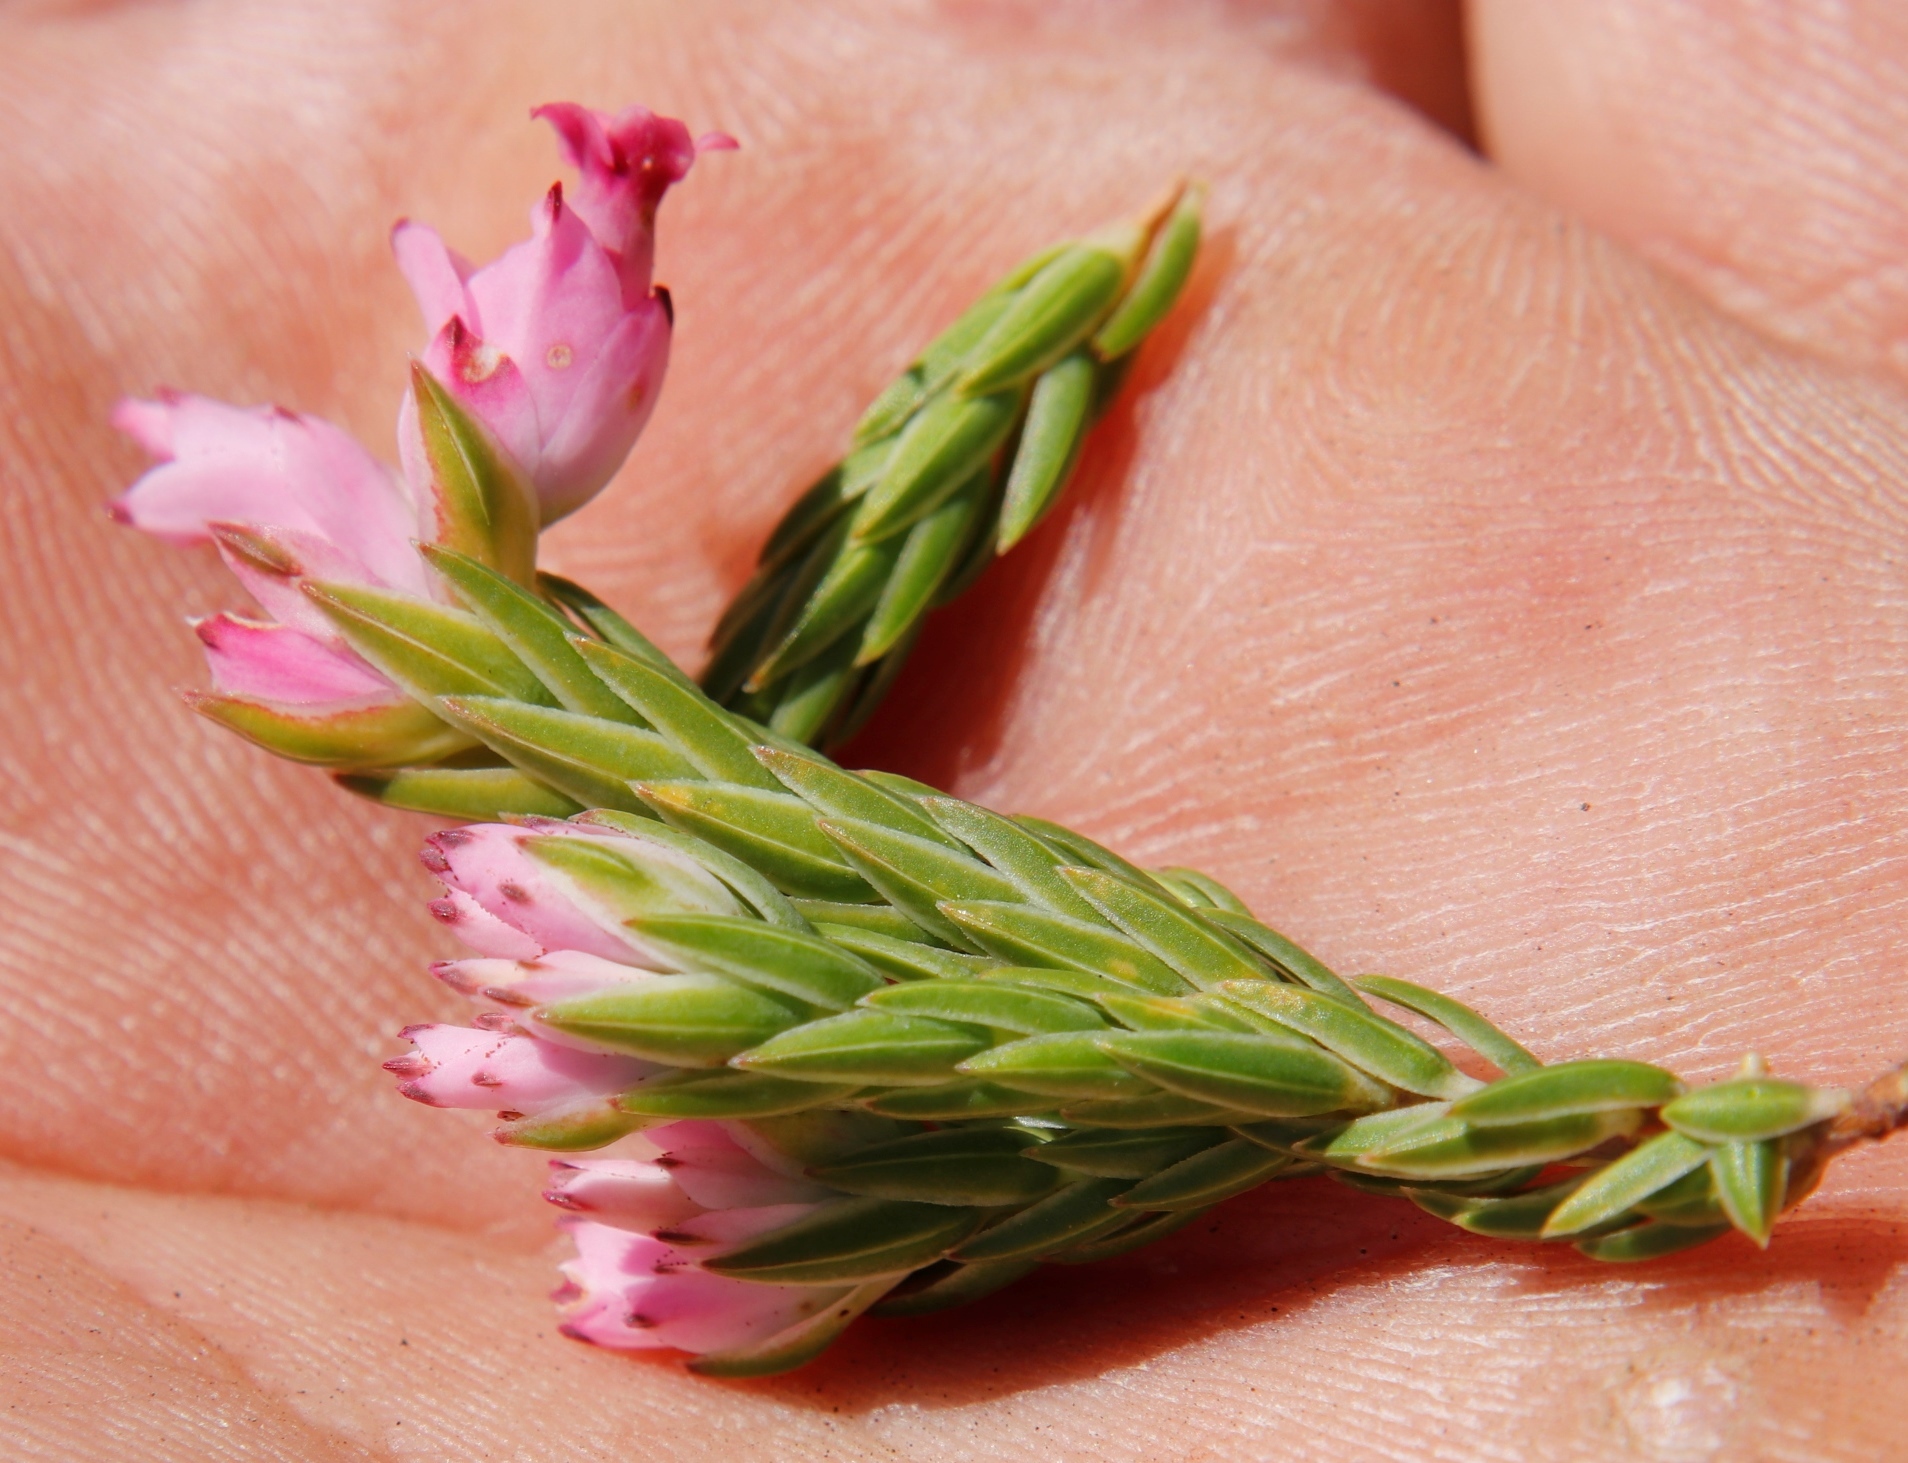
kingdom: Plantae
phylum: Tracheophyta
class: Magnoliopsida
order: Ericales
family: Ericaceae
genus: Erica
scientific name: Erica corifolia
